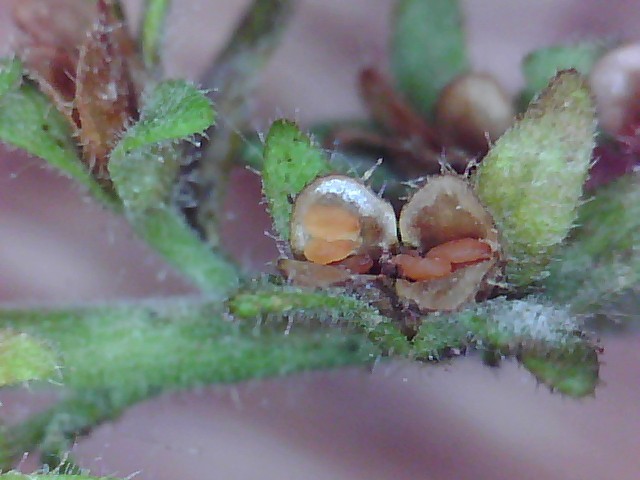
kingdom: Plantae
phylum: Tracheophyta
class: Magnoliopsida
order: Lamiales
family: Plantaginaceae
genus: Veronica
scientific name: Veronica arvensis
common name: Corn speedwell
